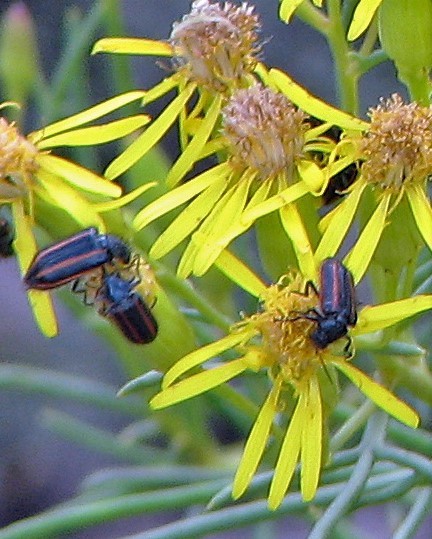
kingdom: Animalia
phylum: Arthropoda
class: Insecta
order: Coleoptera
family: Melyridae
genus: Astylus
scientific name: Astylus
